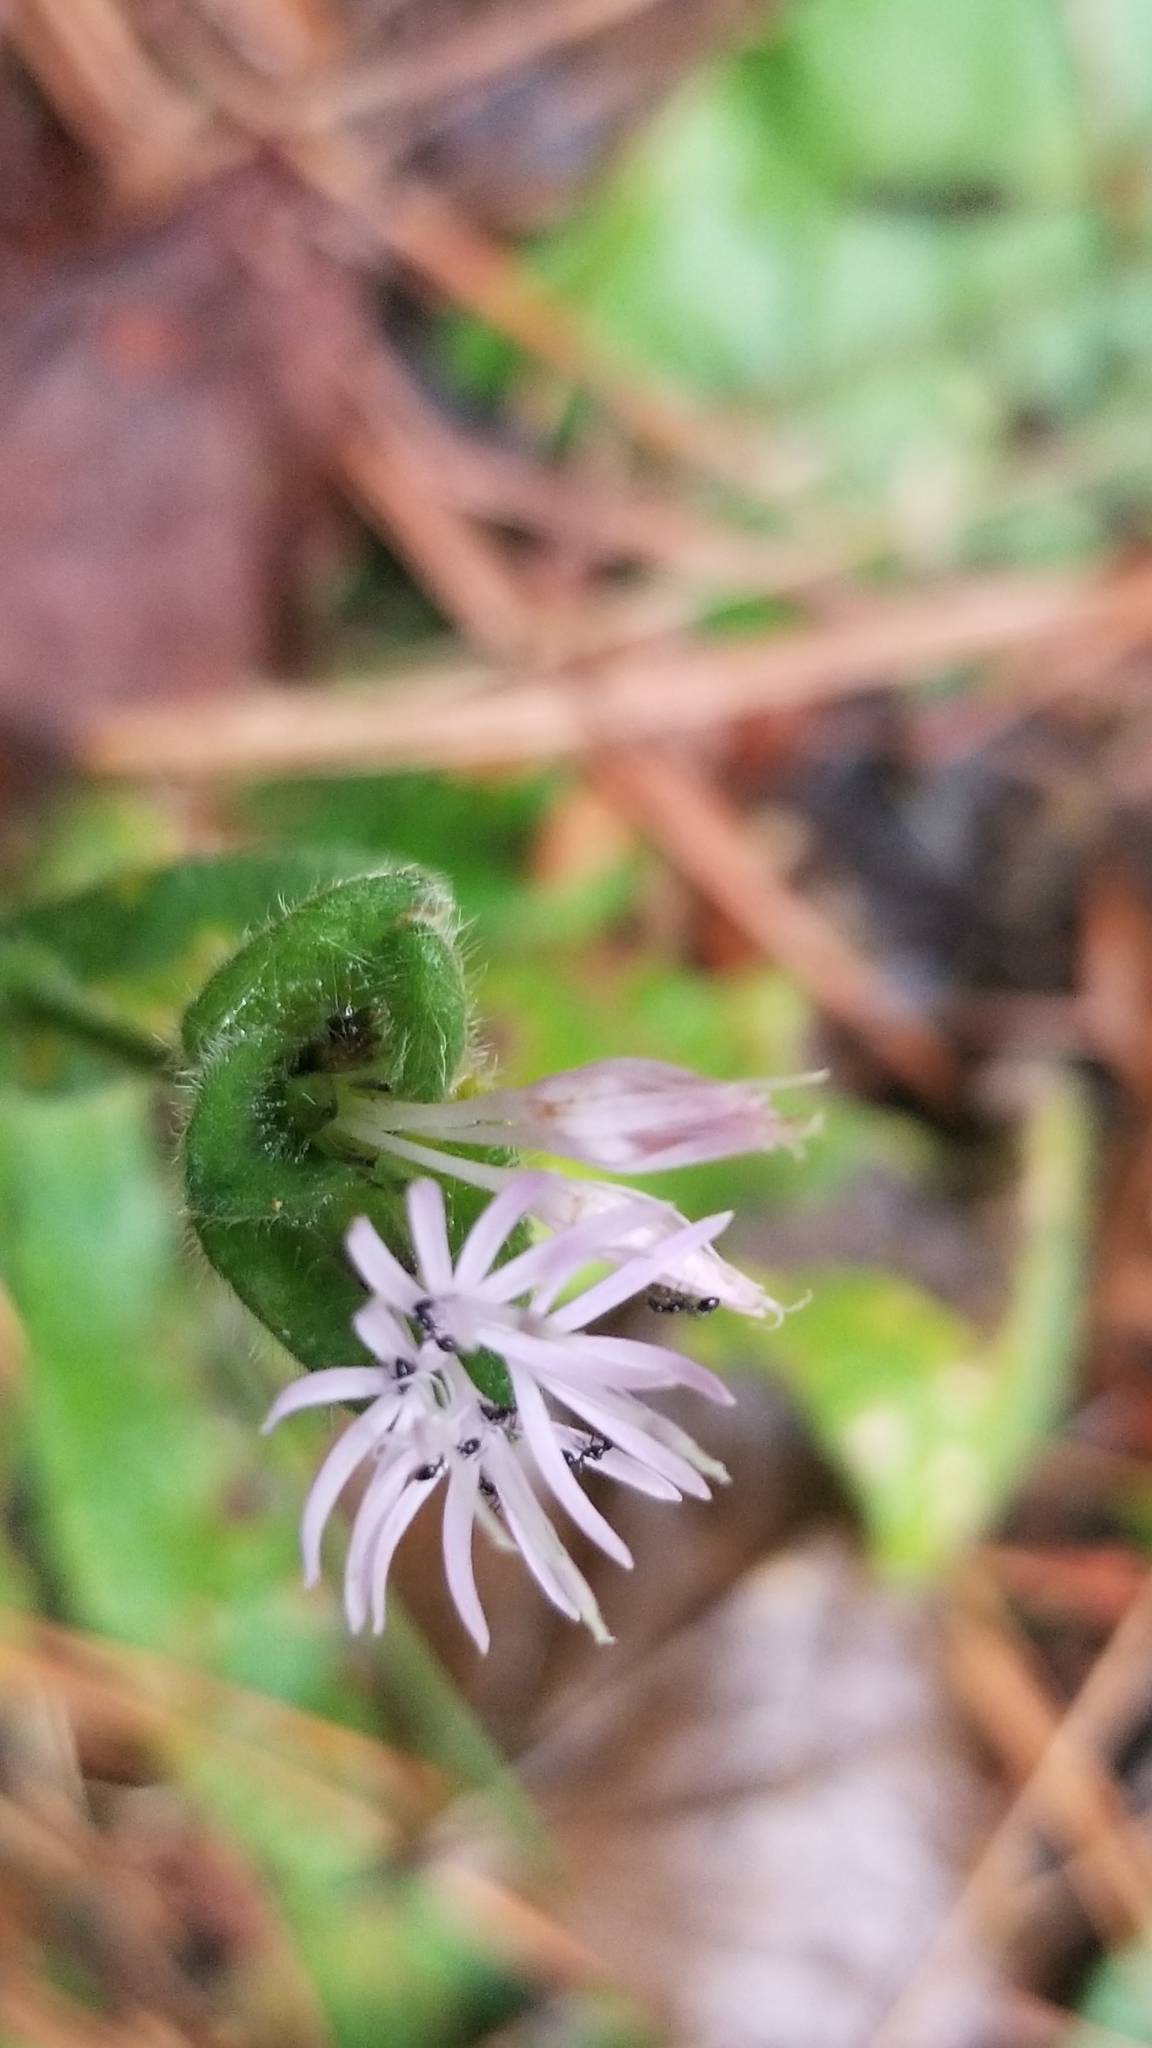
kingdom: Plantae
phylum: Tracheophyta
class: Magnoliopsida
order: Asterales
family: Asteraceae
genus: Elephantopus
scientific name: Elephantopus tomentosus
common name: Tobacco-weed
